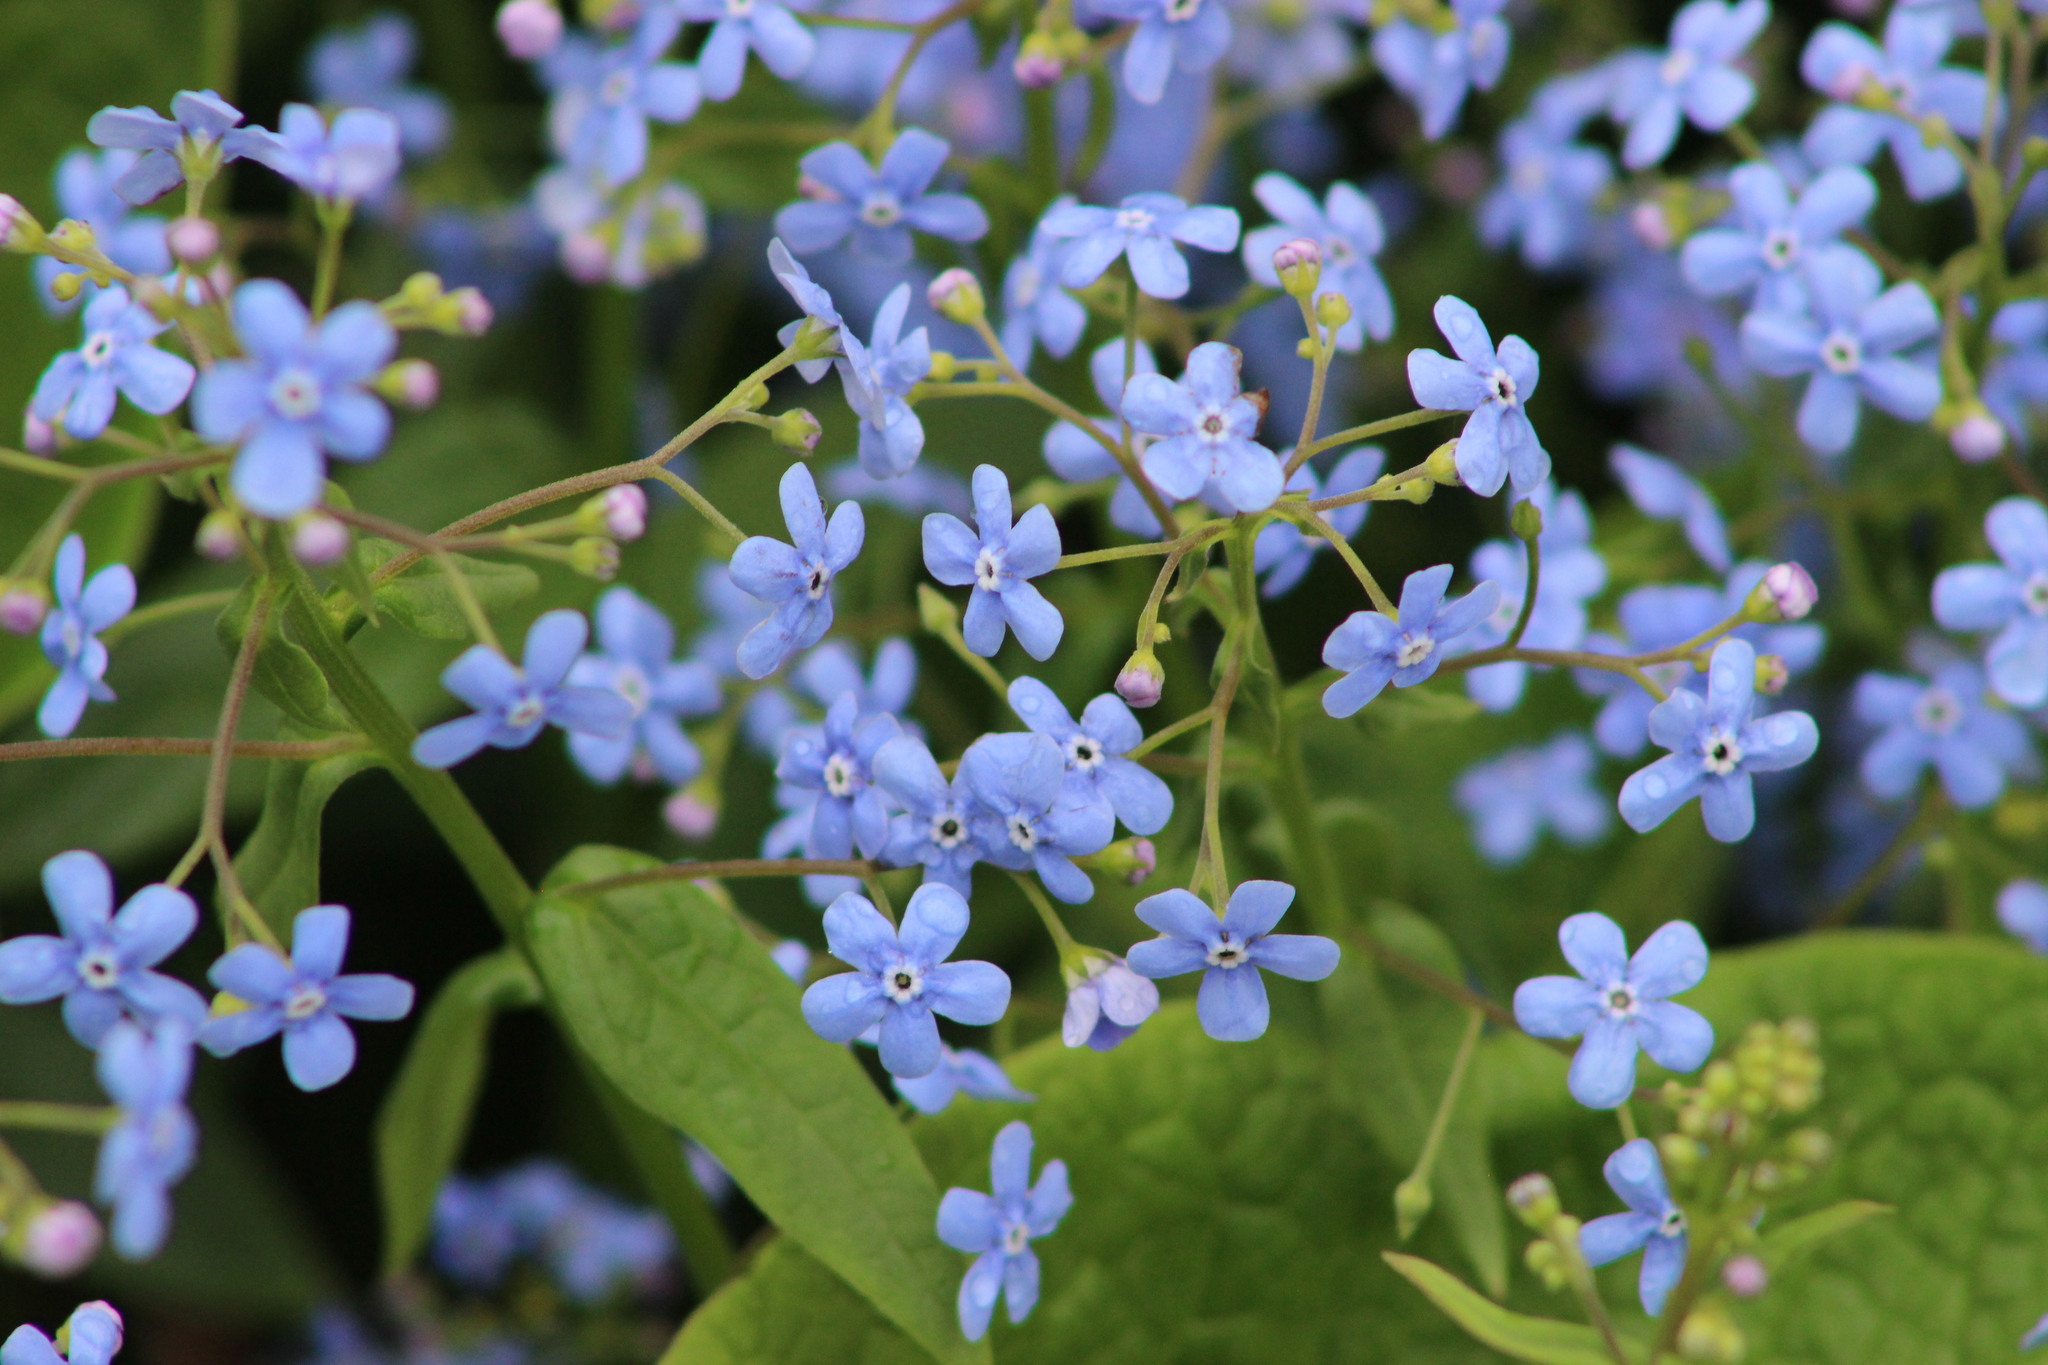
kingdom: Plantae
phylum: Tracheophyta
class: Magnoliopsida
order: Boraginales
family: Boraginaceae
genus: Brunnera
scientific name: Brunnera sibirica
